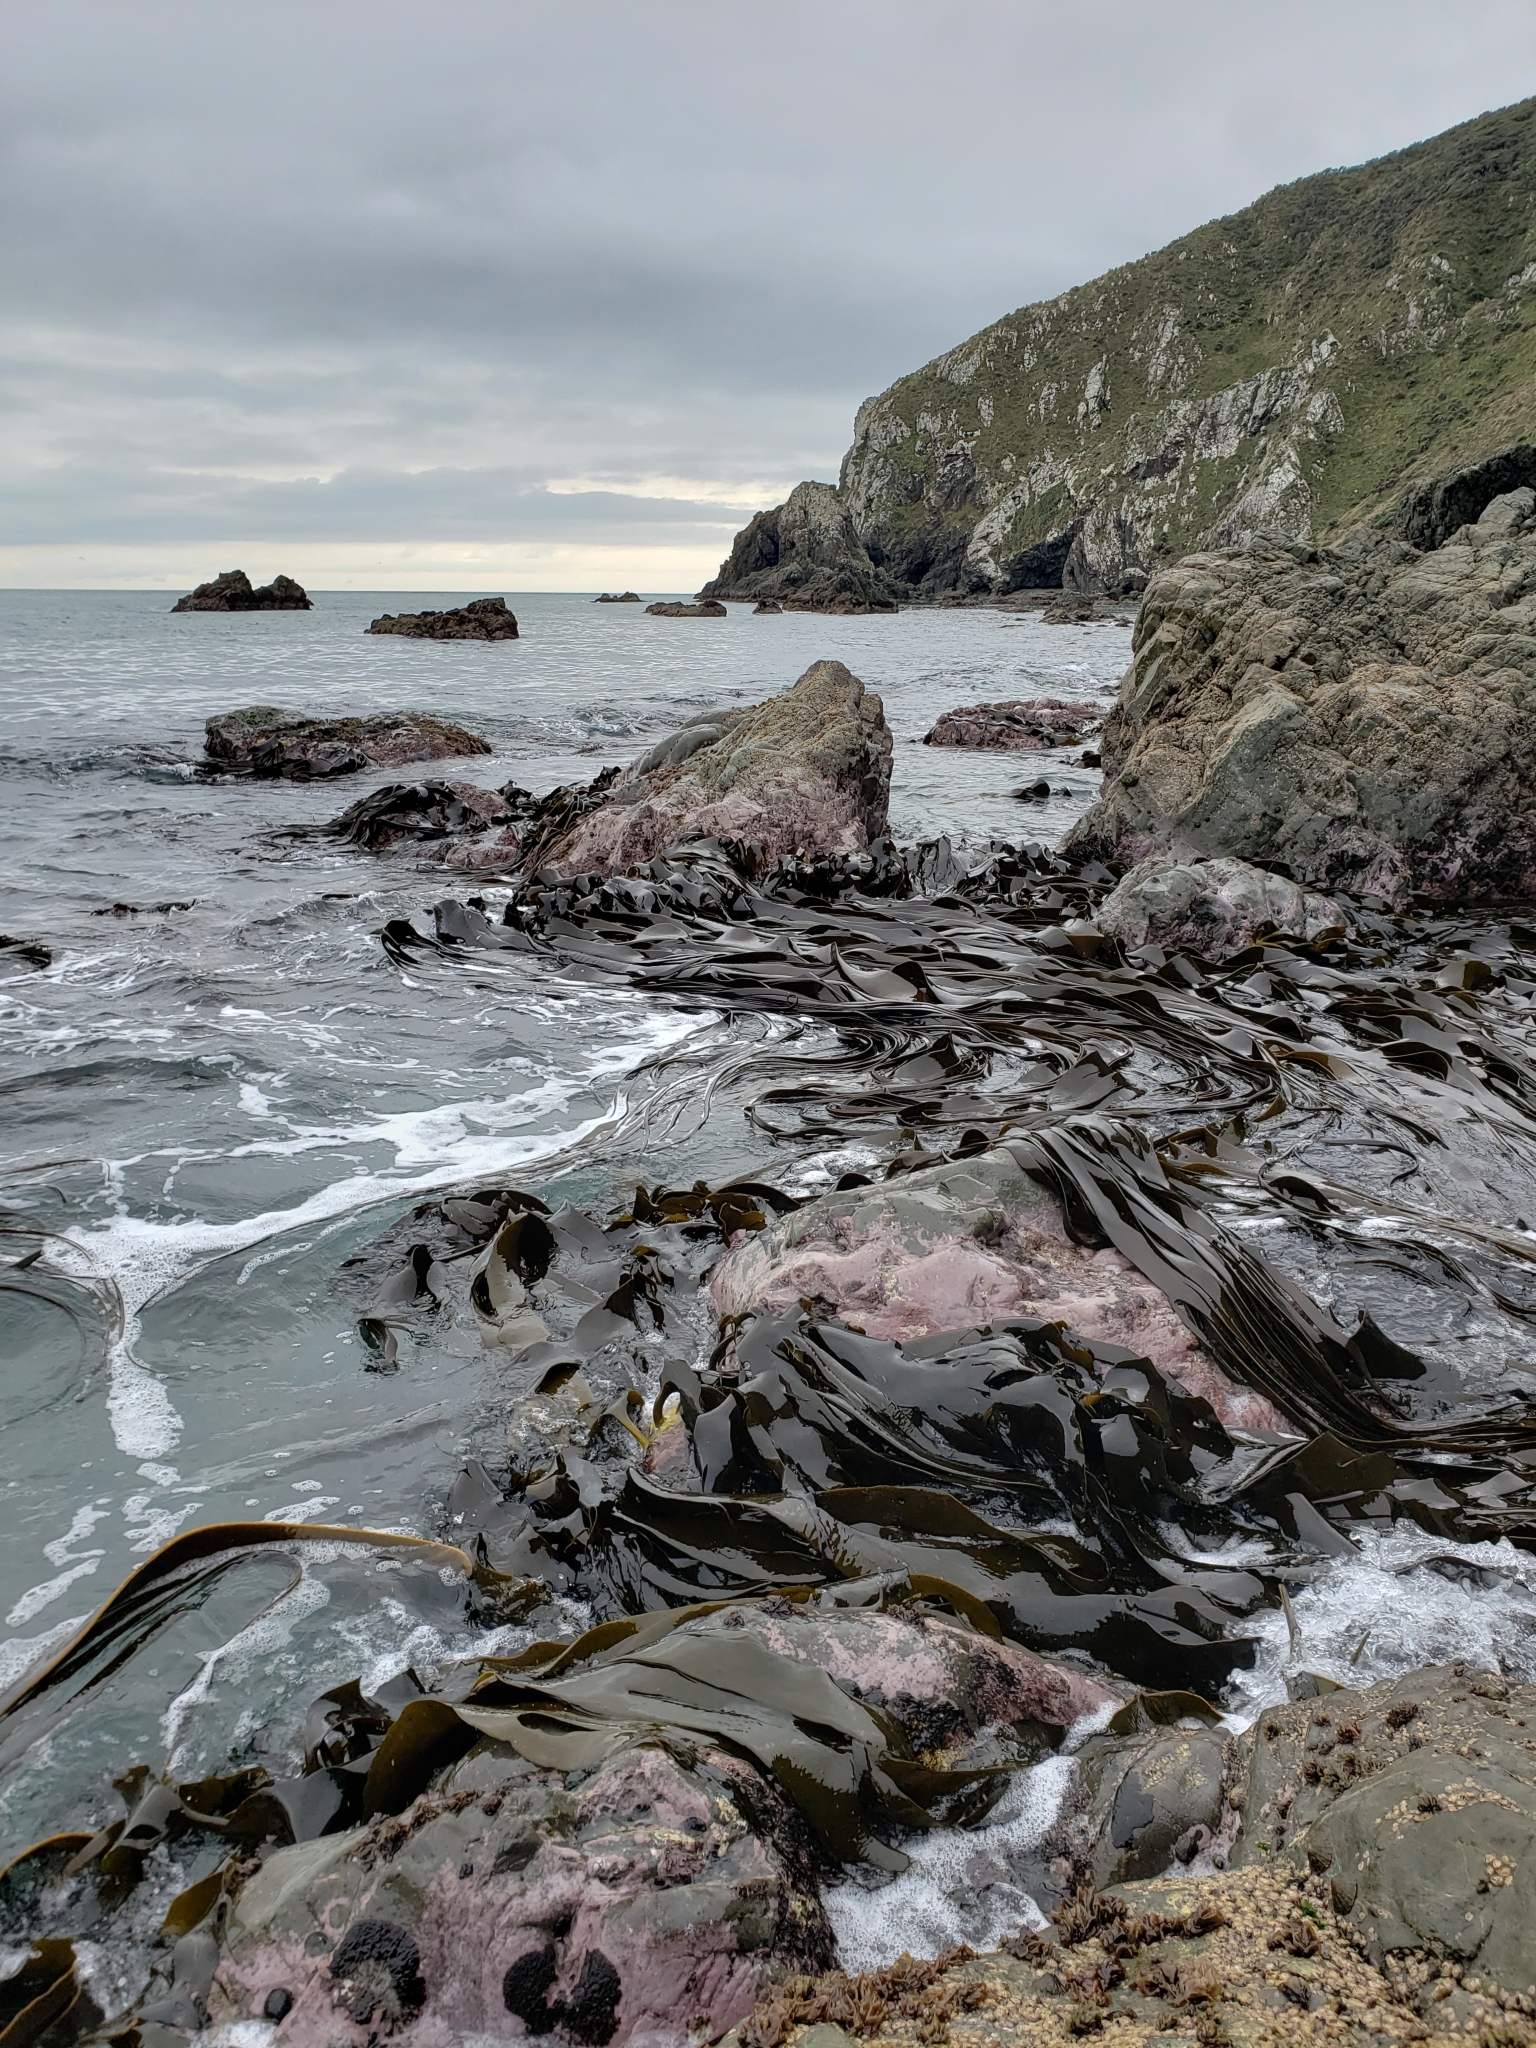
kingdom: Chromista
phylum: Ochrophyta
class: Phaeophyceae
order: Fucales
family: Durvillaeaceae
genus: Durvillaea
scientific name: Durvillaea antarctica
